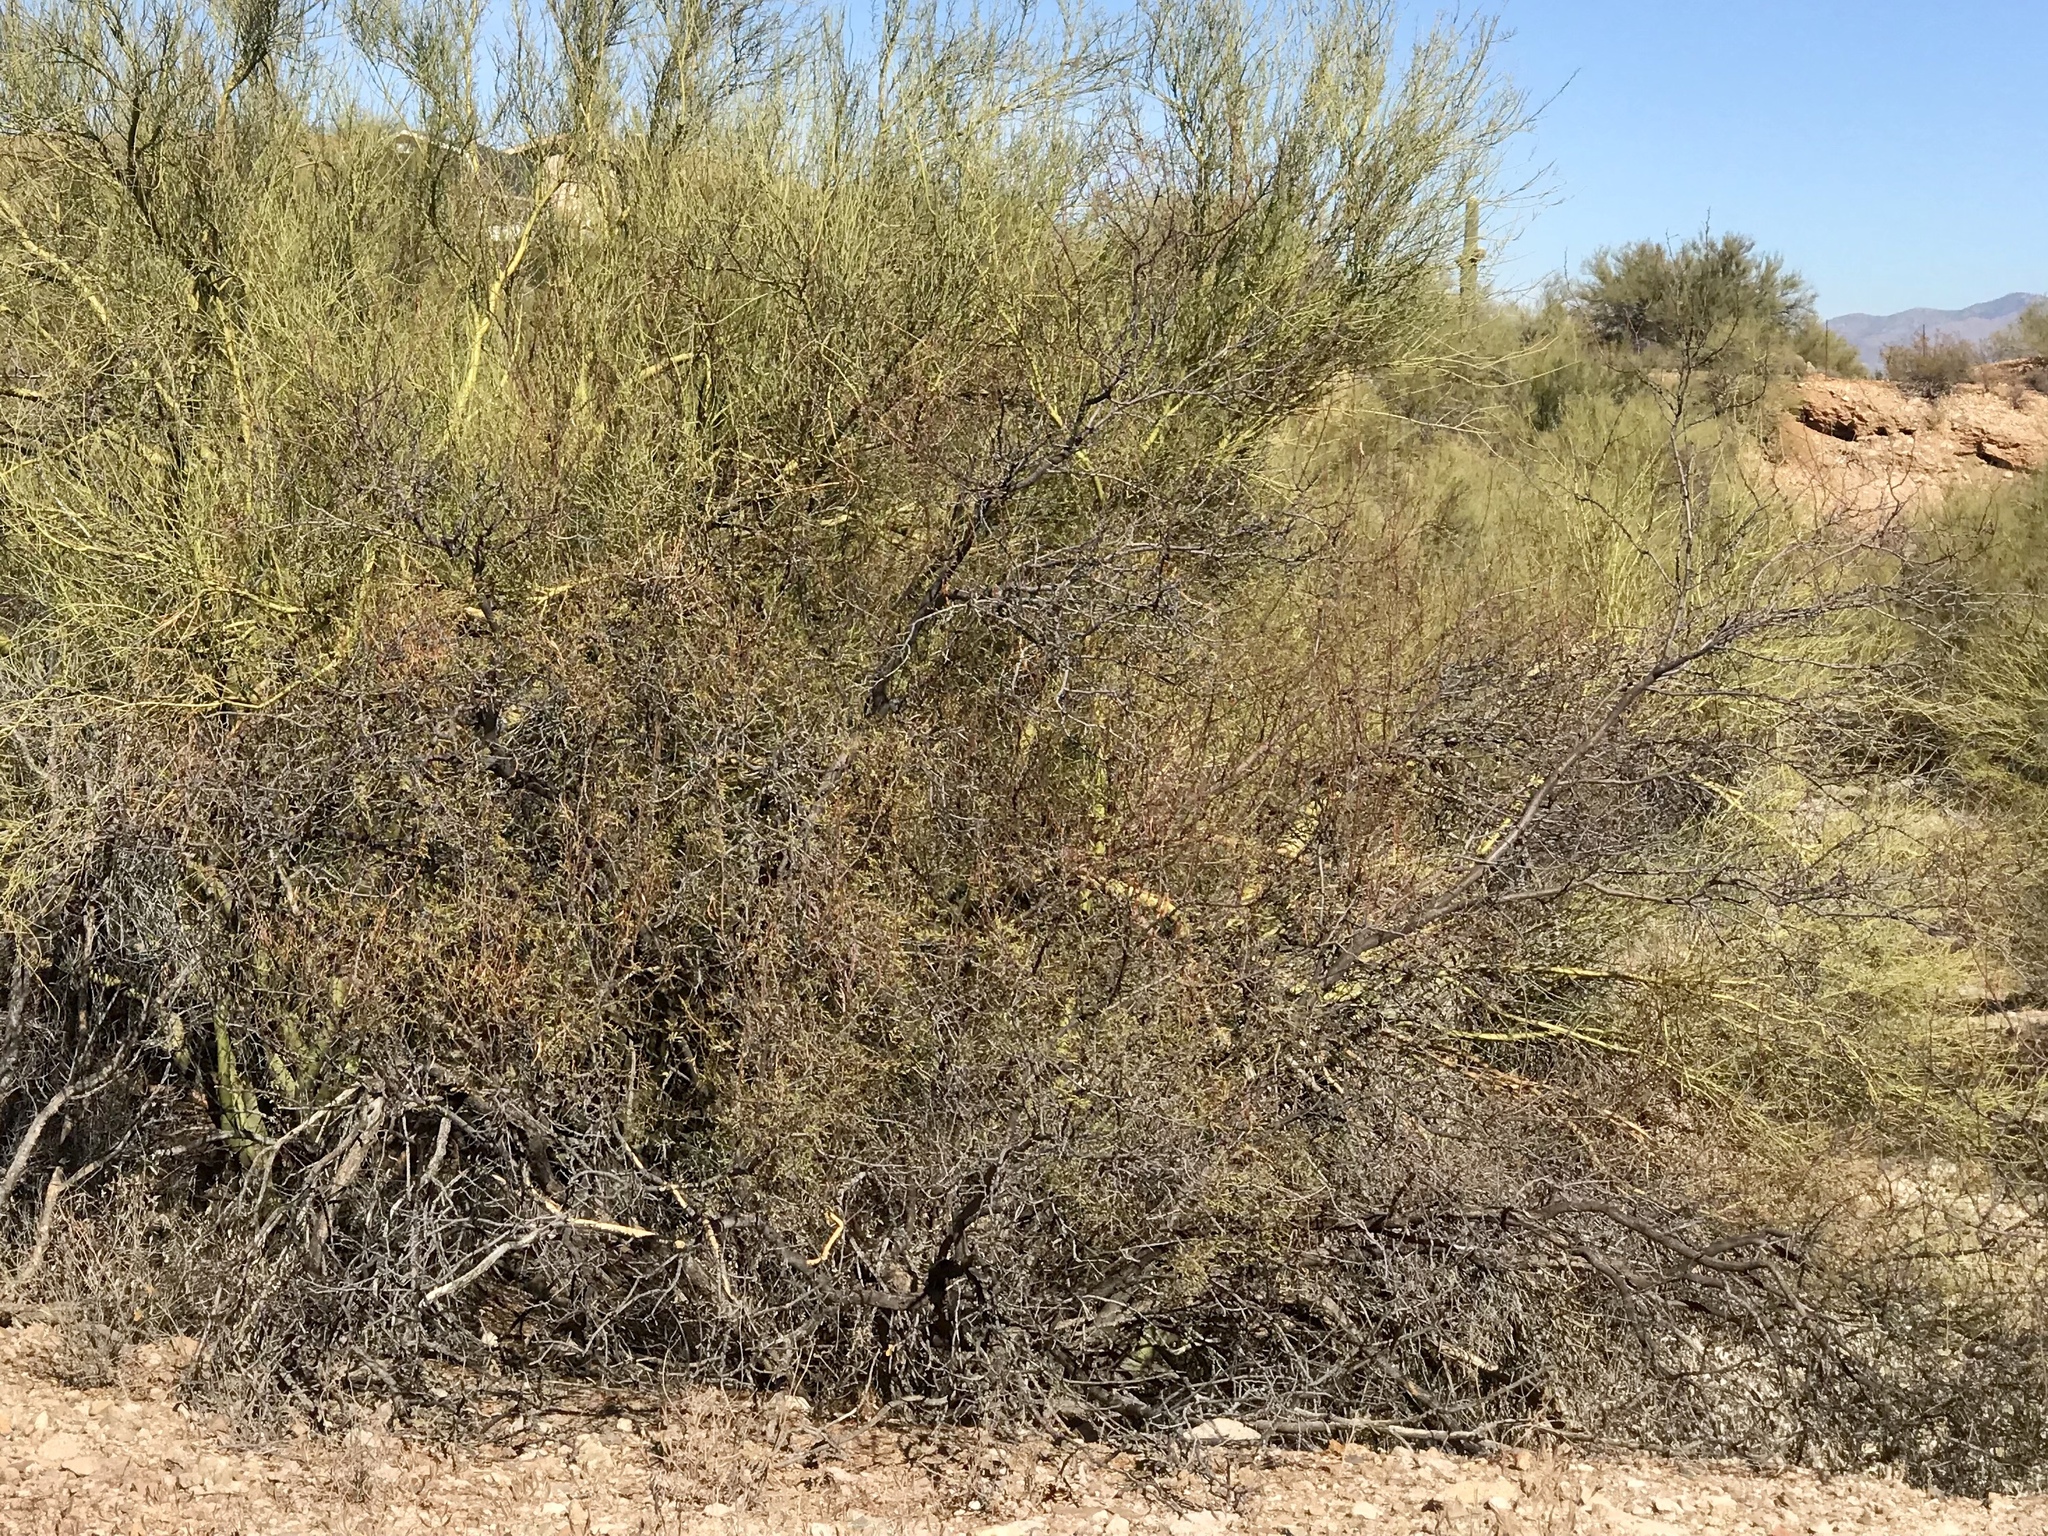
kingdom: Plantae
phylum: Tracheophyta
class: Magnoliopsida
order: Zygophyllales
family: Zygophyllaceae
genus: Larrea
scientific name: Larrea tridentata
